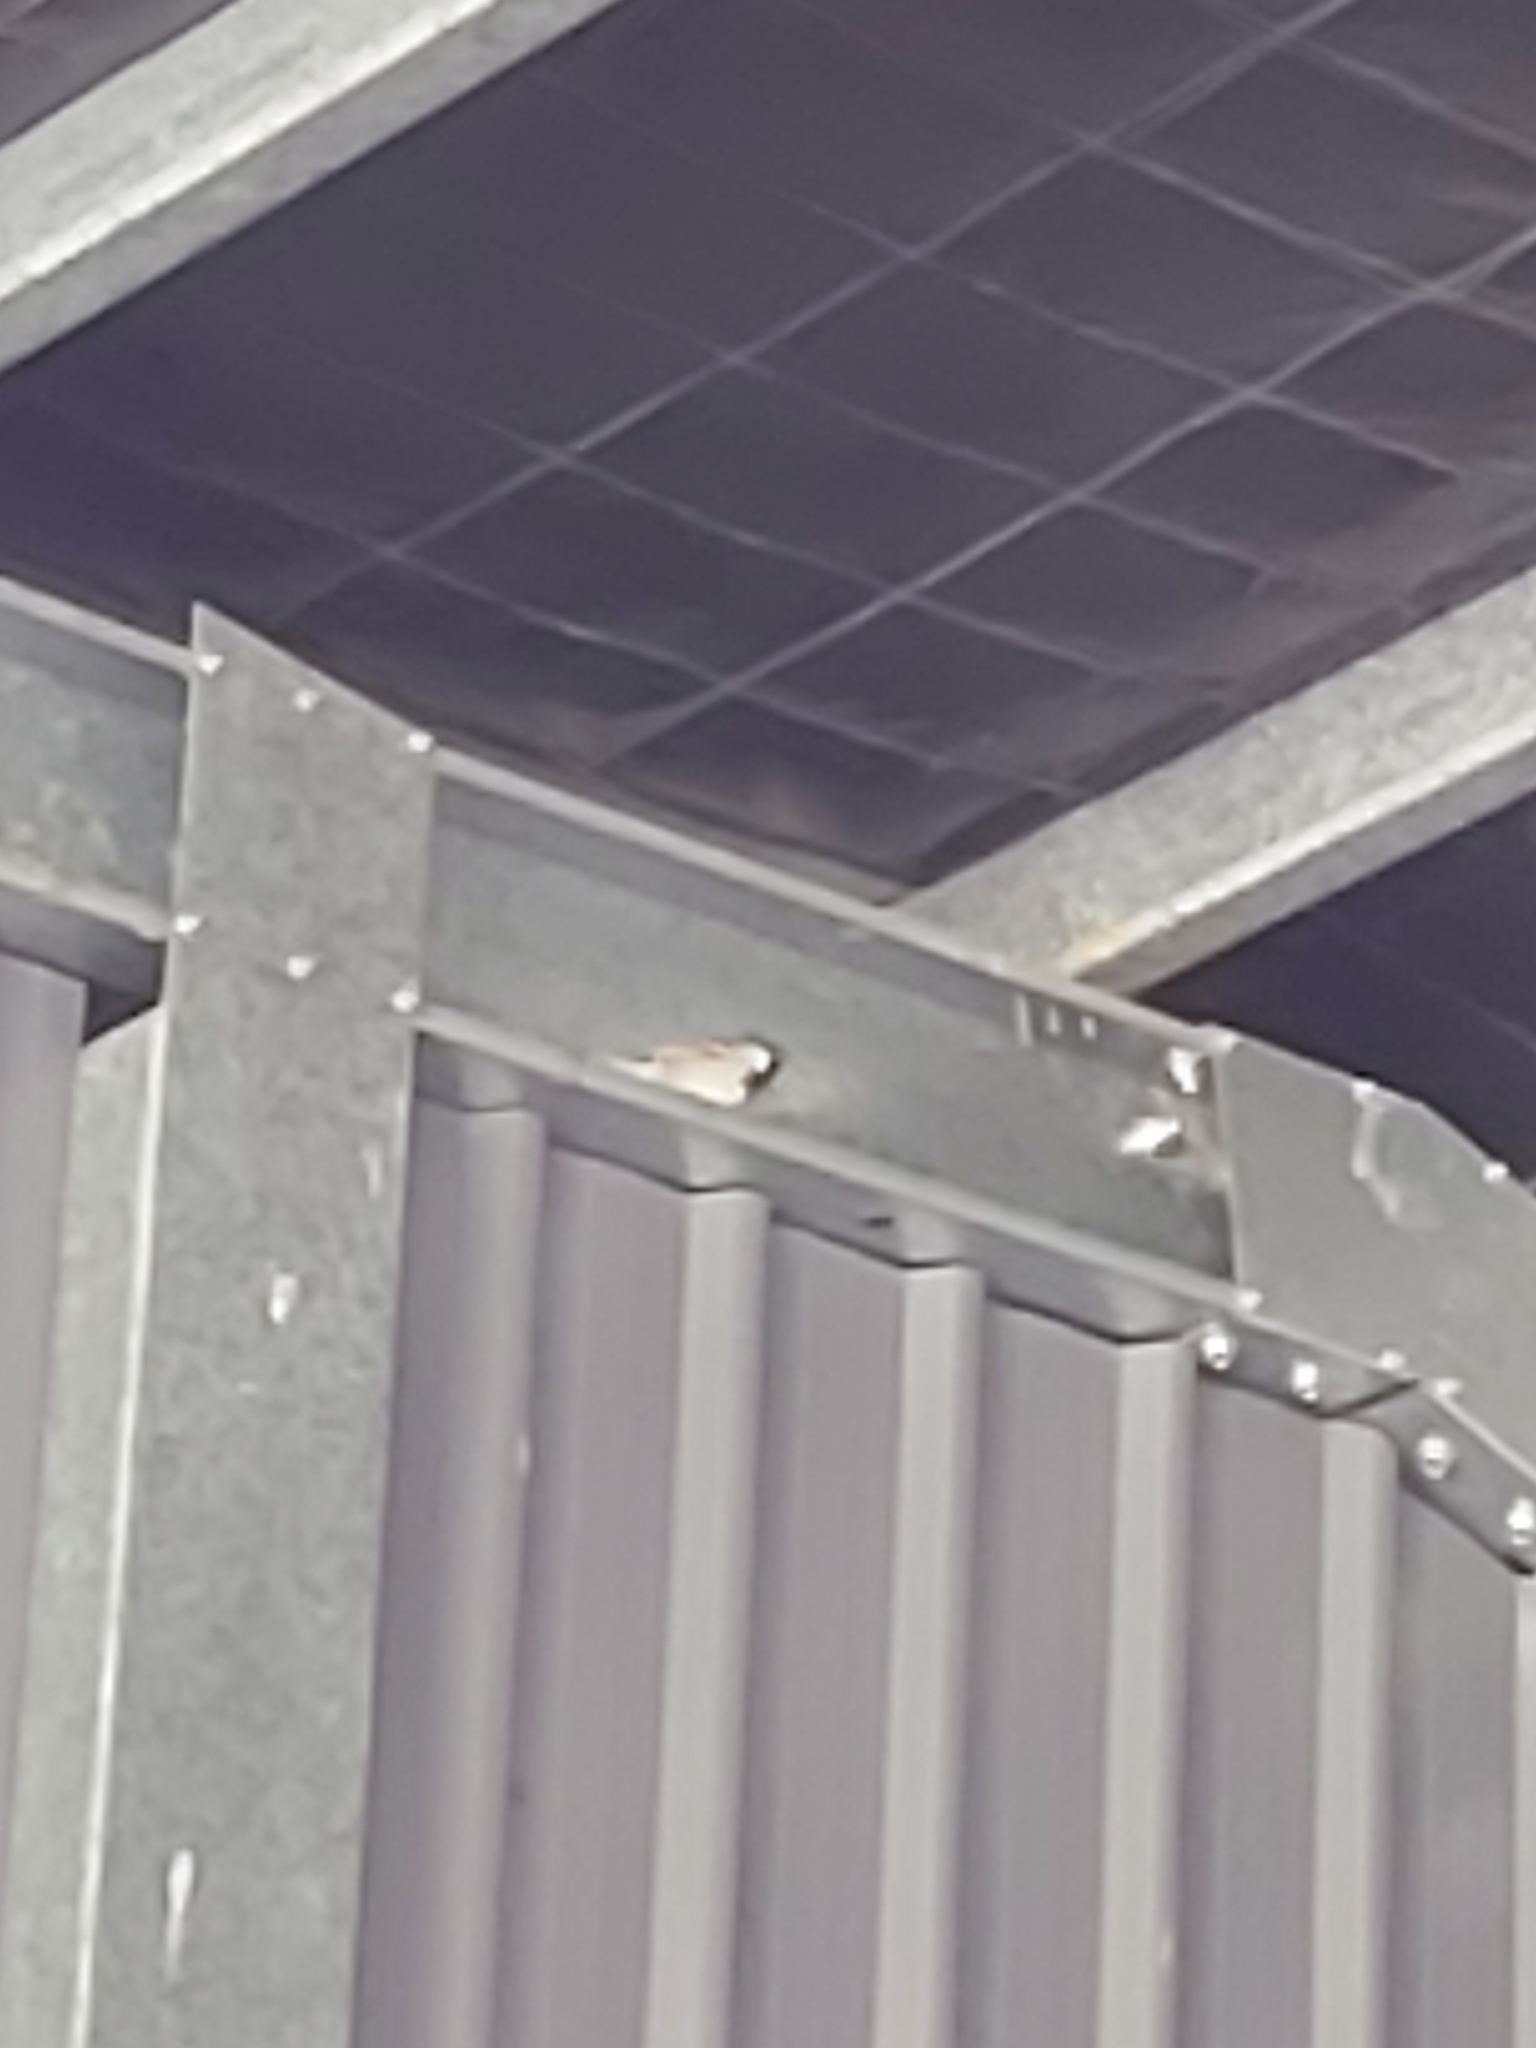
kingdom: Animalia
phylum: Chordata
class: Aves
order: Passeriformes
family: Passeridae
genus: Passer
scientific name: Passer domesticus
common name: House sparrow
